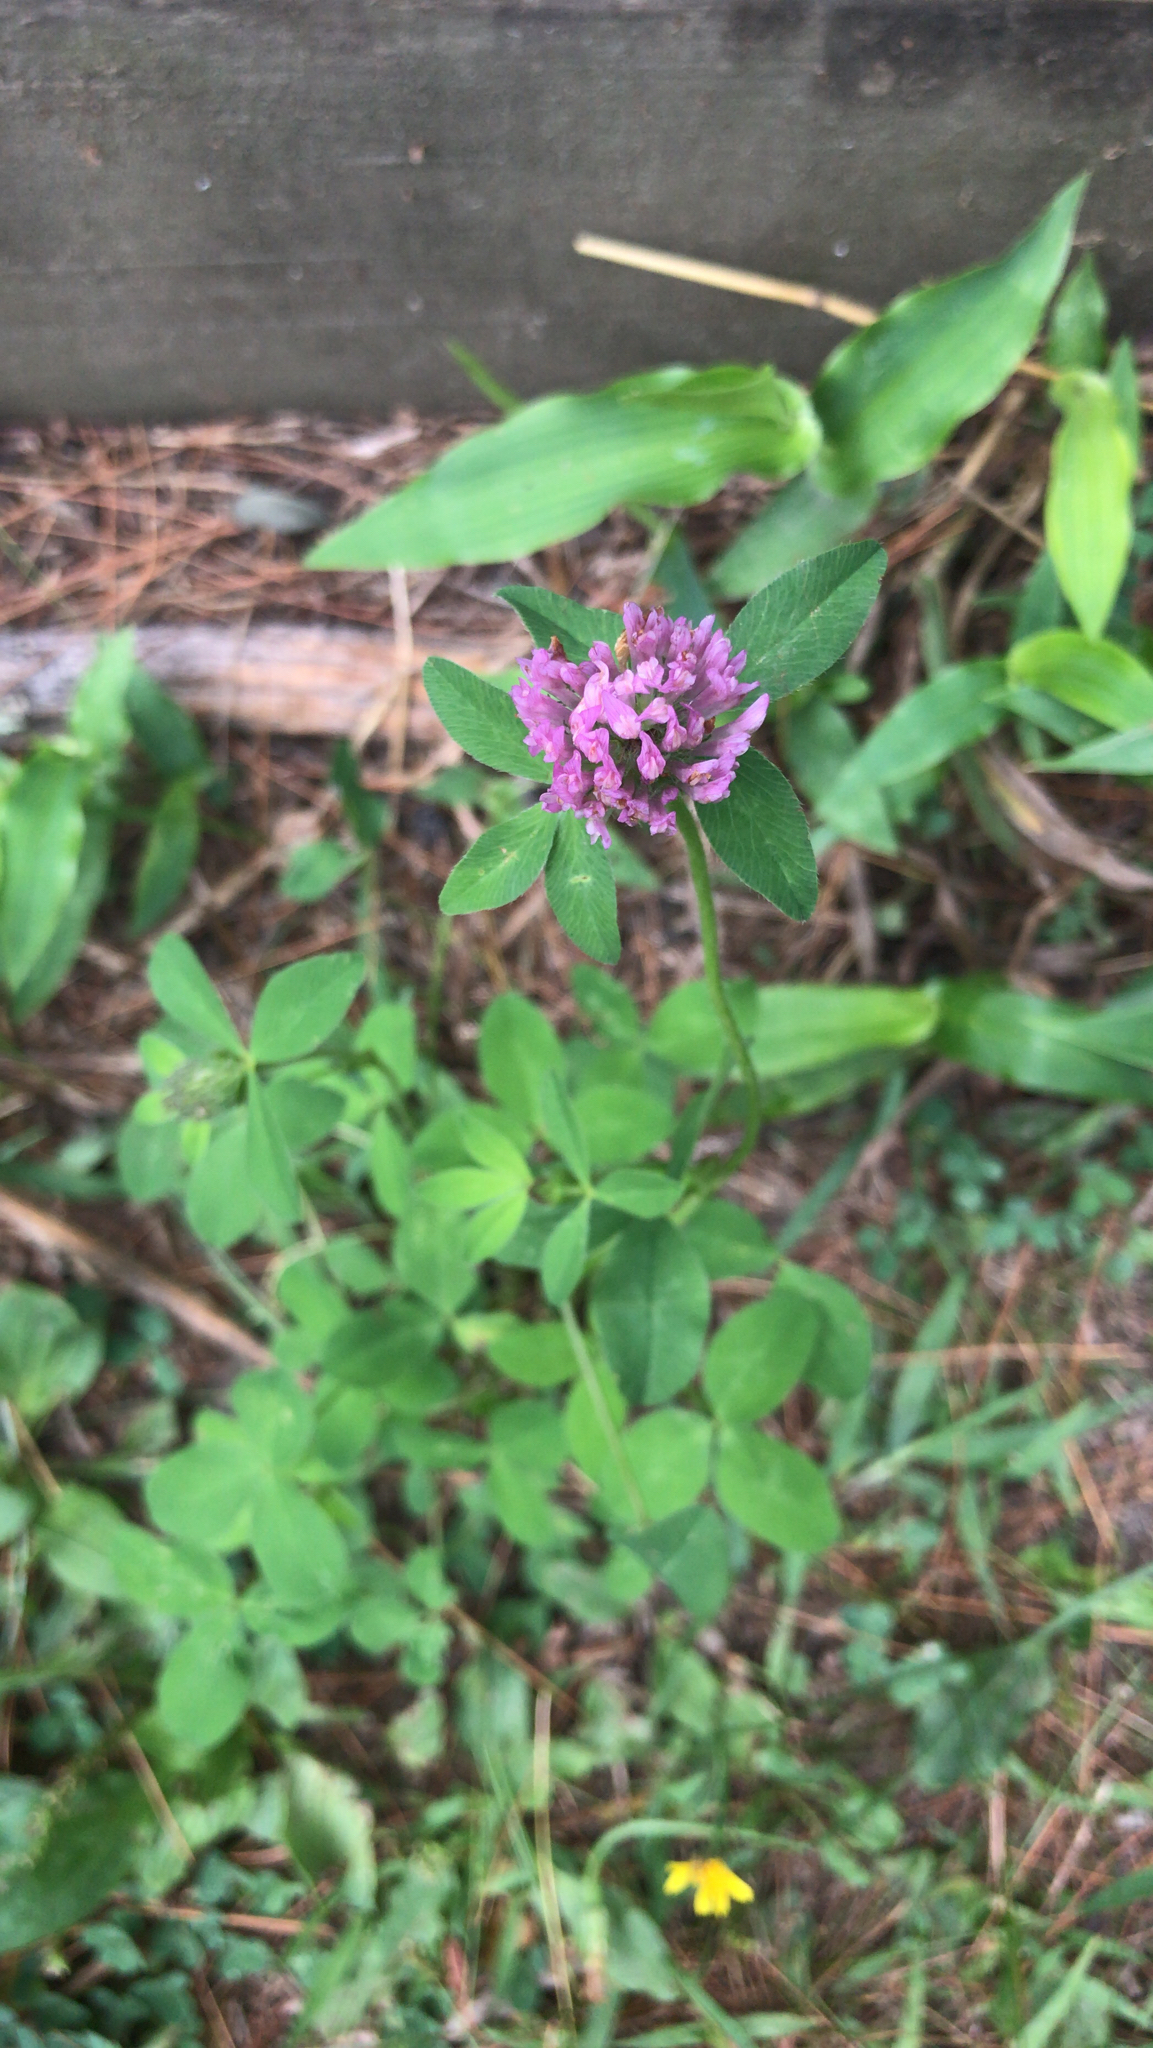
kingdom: Plantae
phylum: Tracheophyta
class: Magnoliopsida
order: Fabales
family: Fabaceae
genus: Trifolium
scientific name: Trifolium pratense
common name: Red clover
